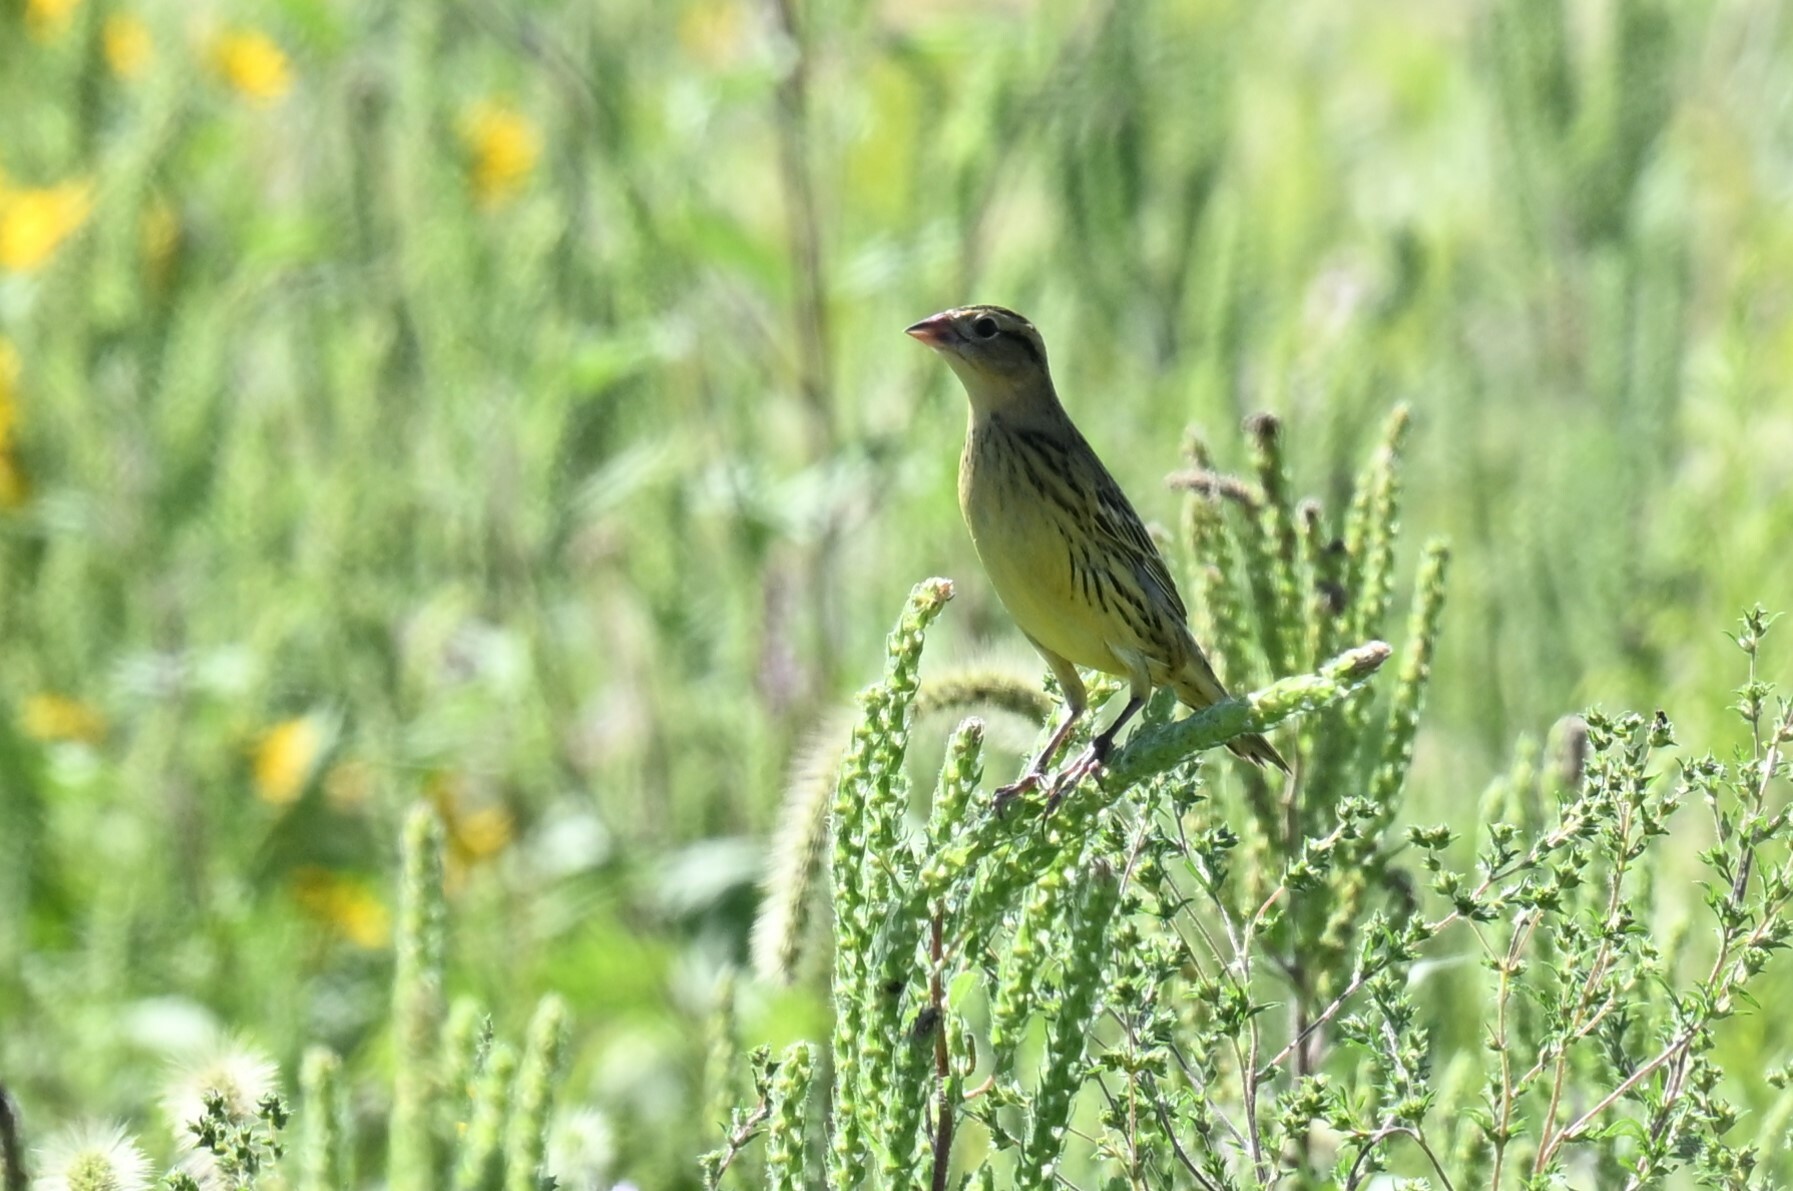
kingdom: Animalia
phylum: Chordata
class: Aves
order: Passeriformes
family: Icteridae
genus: Dolichonyx
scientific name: Dolichonyx oryzivorus
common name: Bobolink
